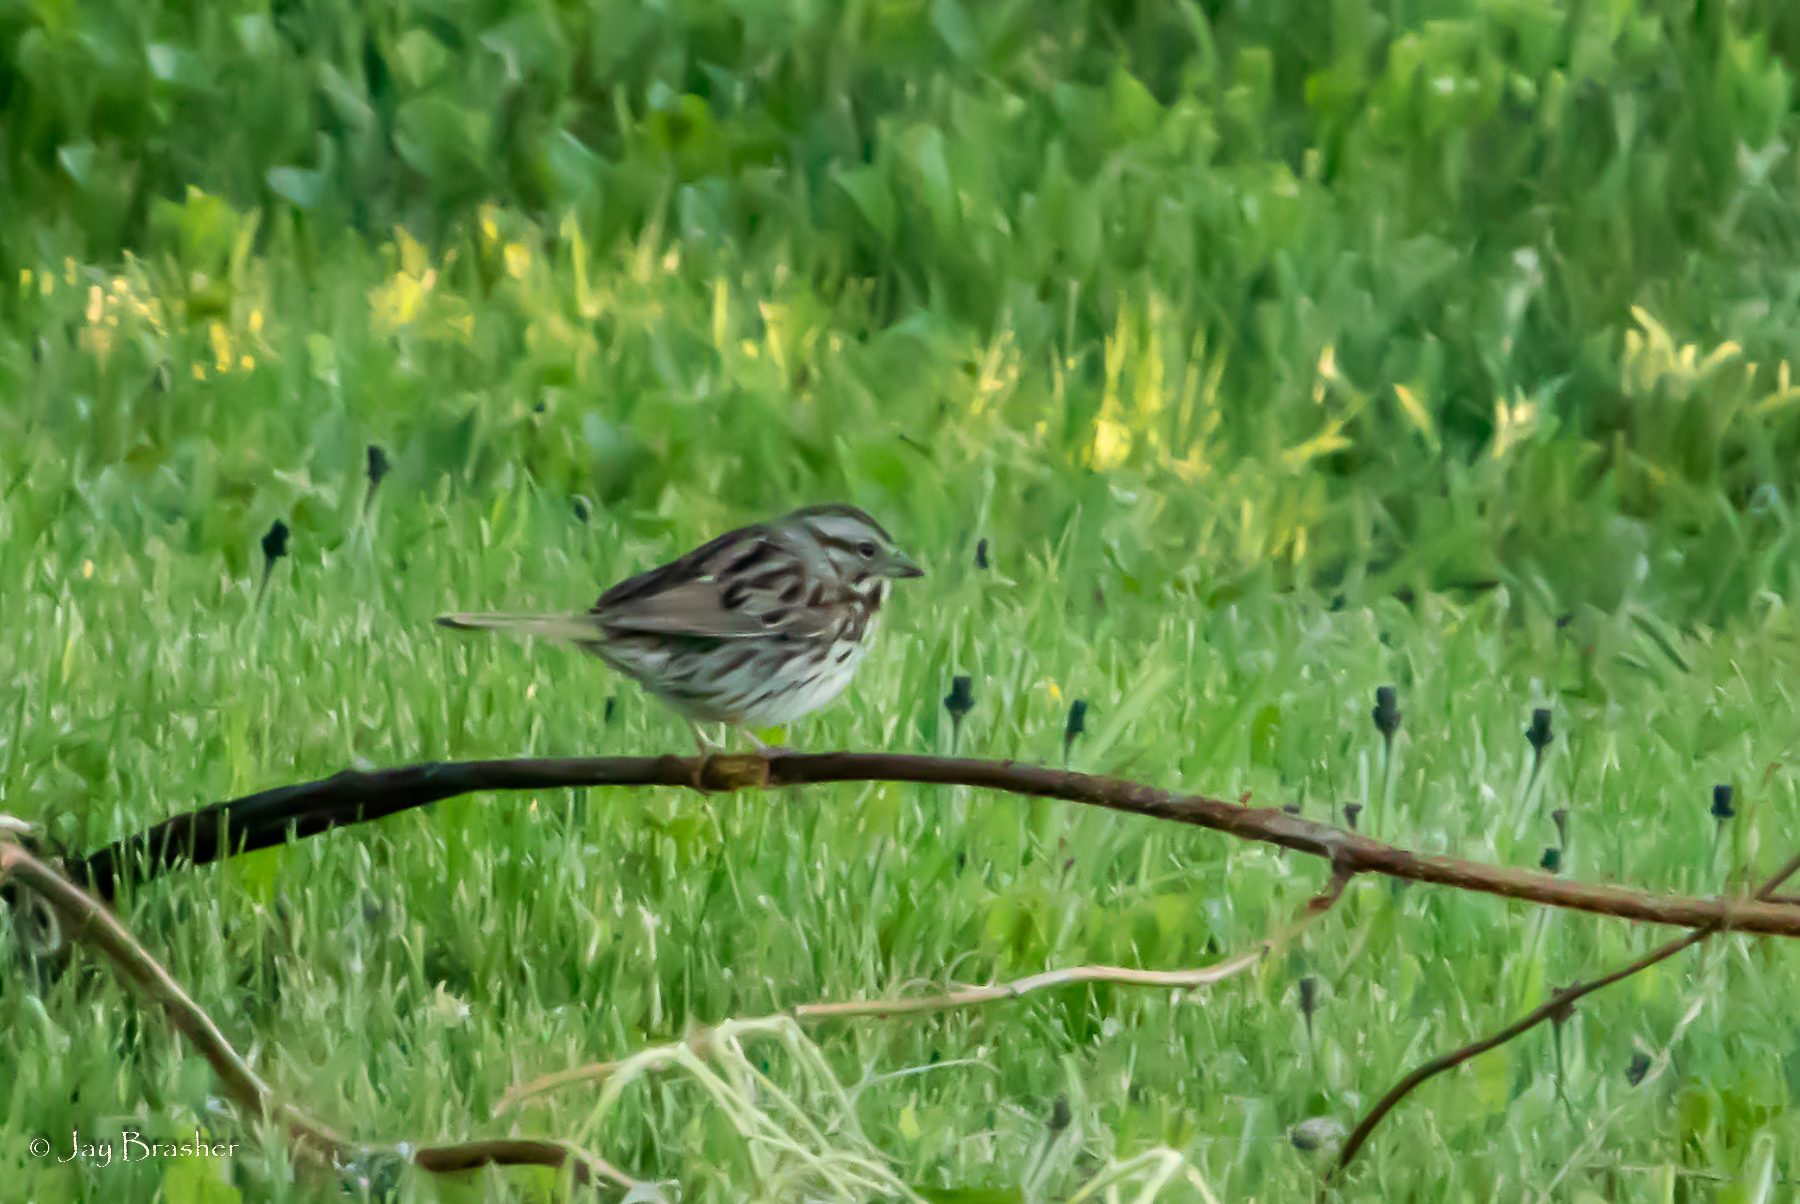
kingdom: Animalia
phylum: Chordata
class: Aves
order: Passeriformes
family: Passerellidae
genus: Melospiza
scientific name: Melospiza melodia
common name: Song sparrow
